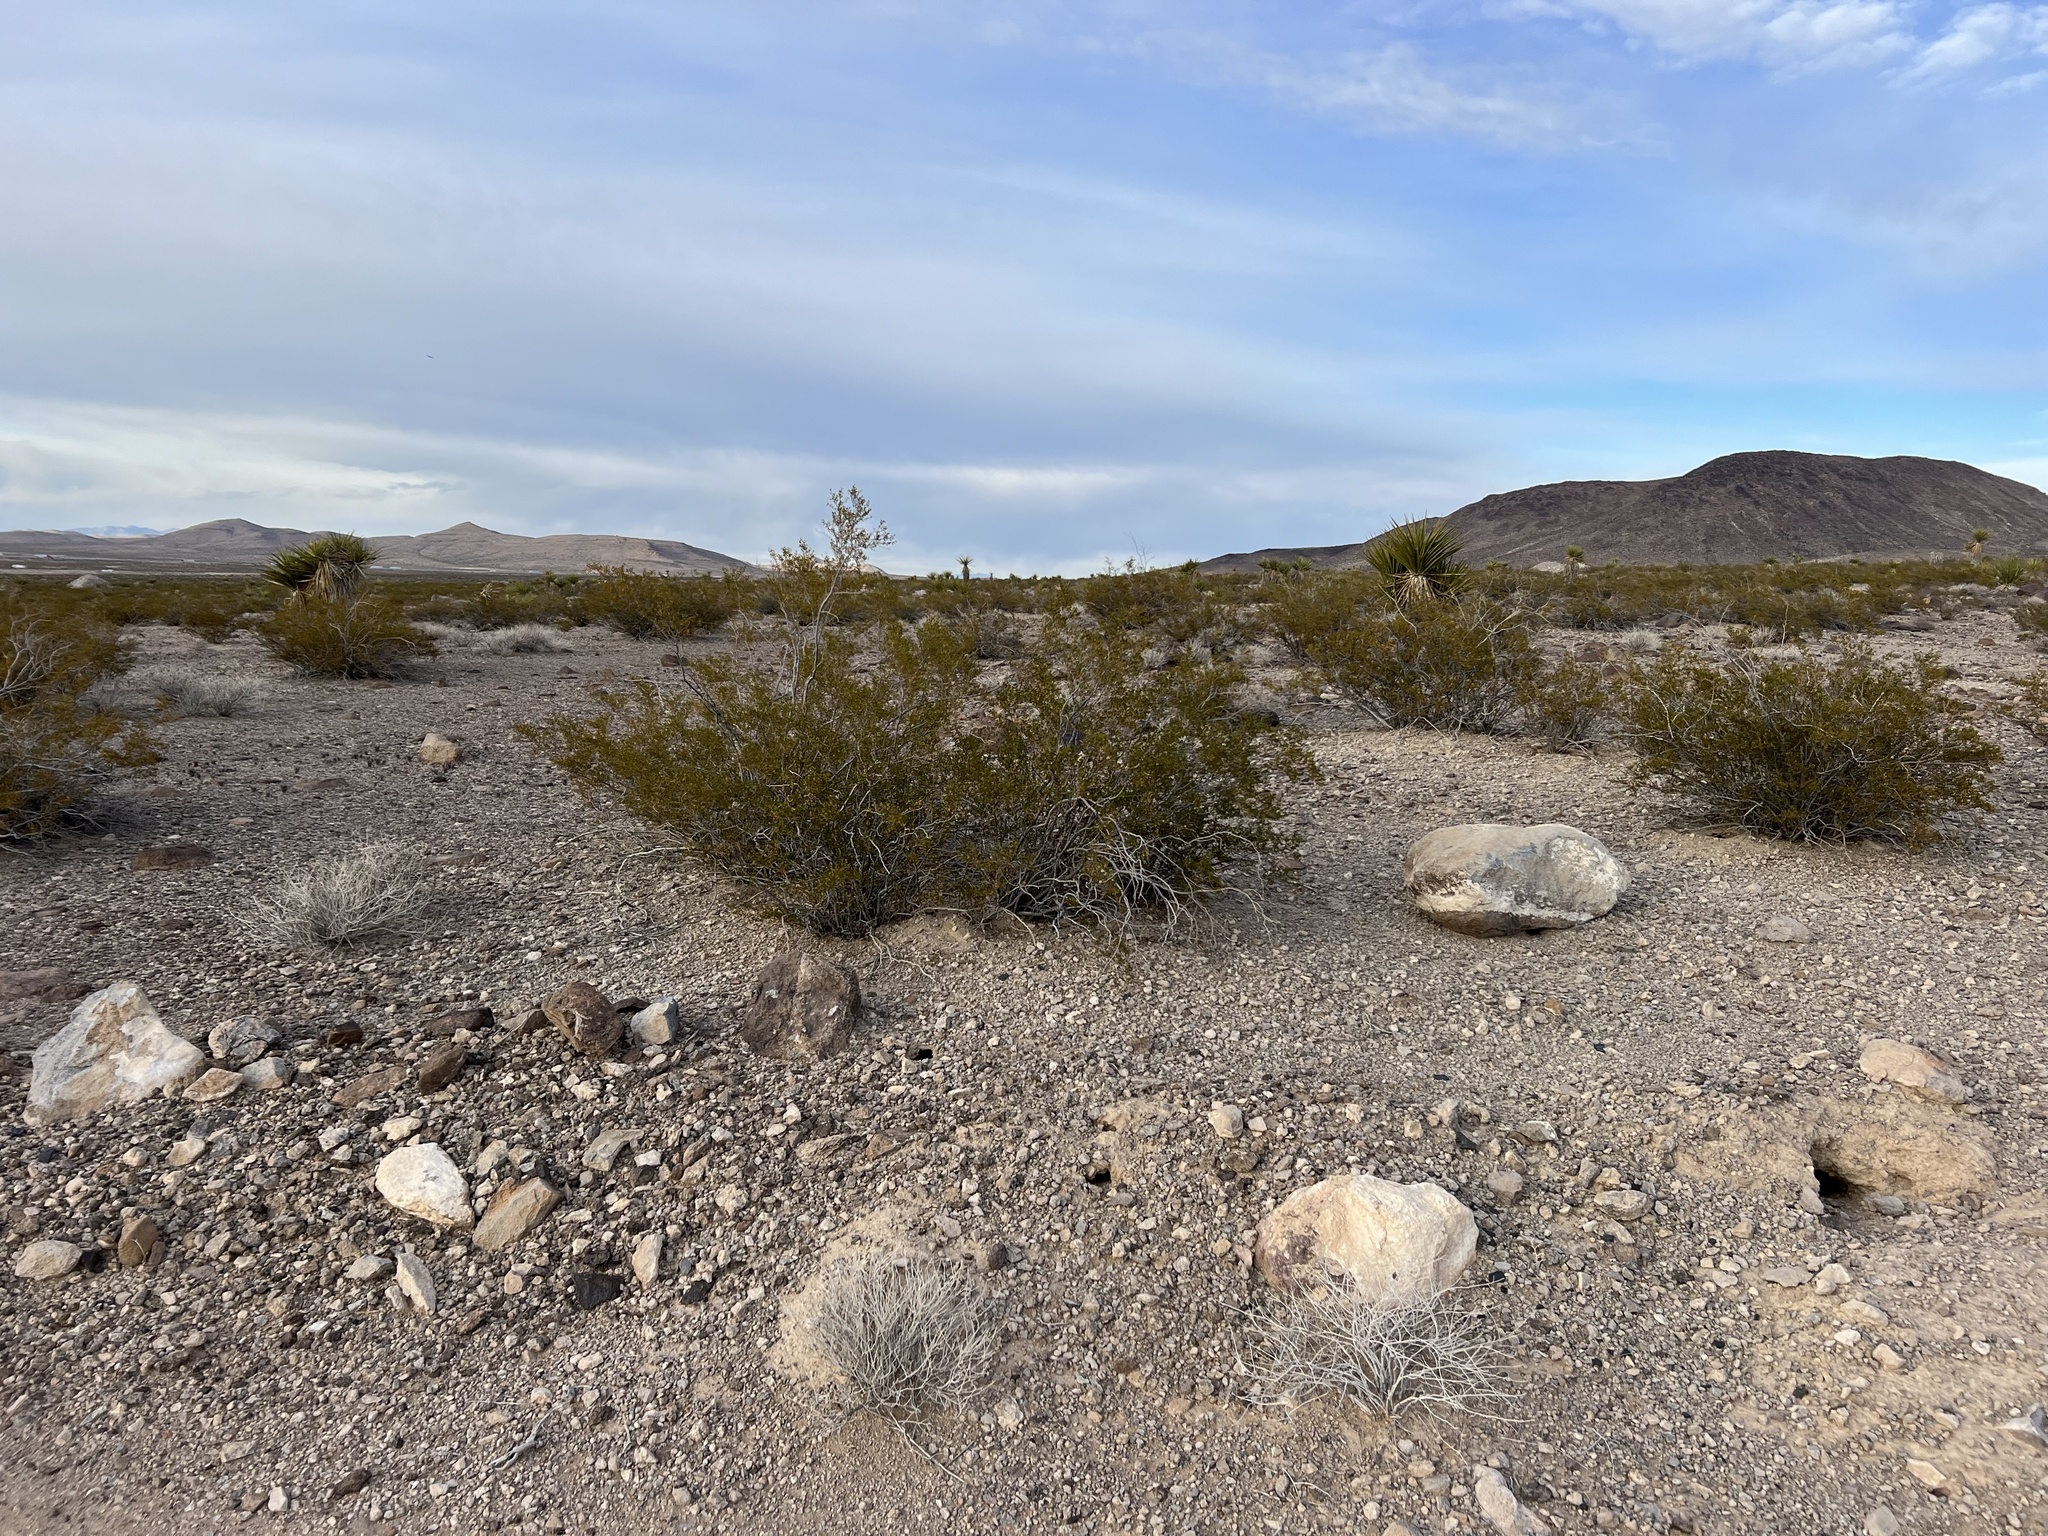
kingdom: Plantae
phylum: Tracheophyta
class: Magnoliopsida
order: Zygophyllales
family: Zygophyllaceae
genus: Larrea
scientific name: Larrea tridentata
